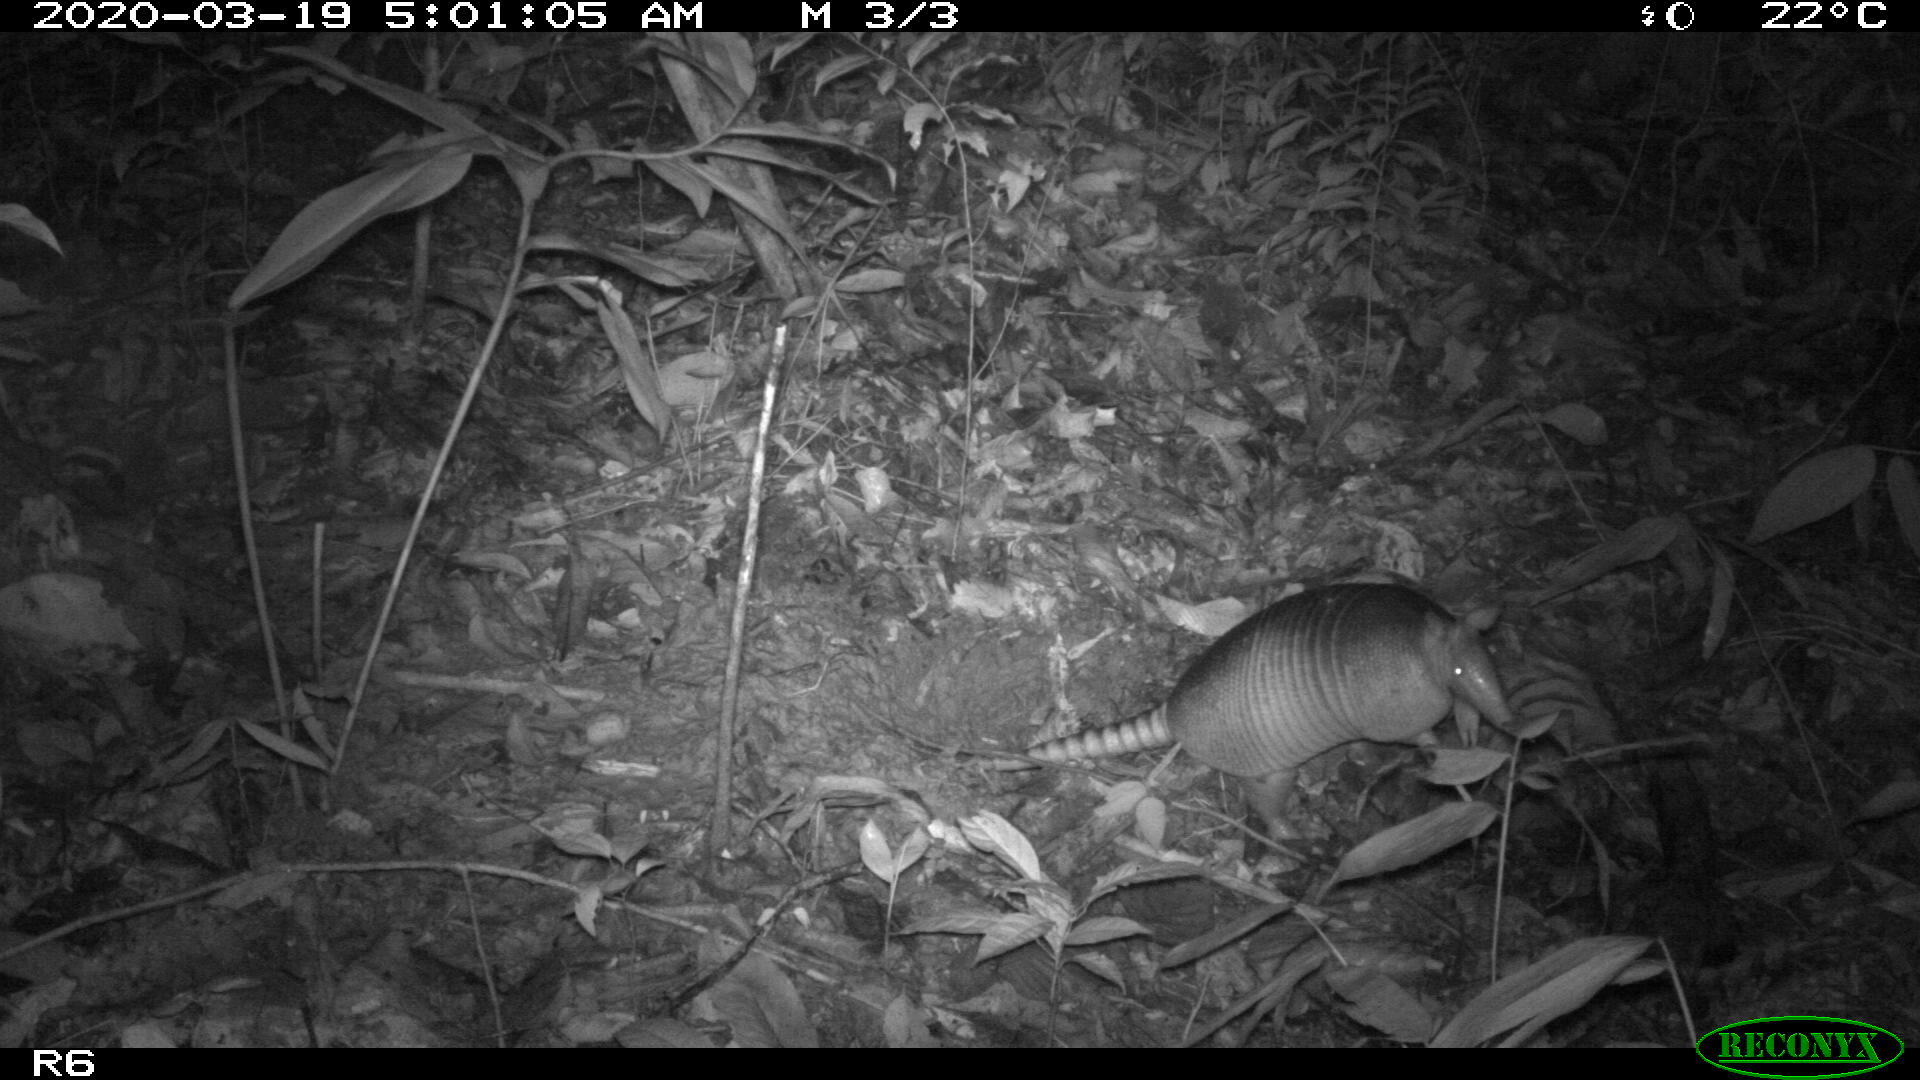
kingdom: Animalia
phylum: Chordata
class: Mammalia
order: Cingulata
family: Dasypodidae
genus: Dasypus
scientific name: Dasypus novemcinctus
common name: Nine-banded armadillo
